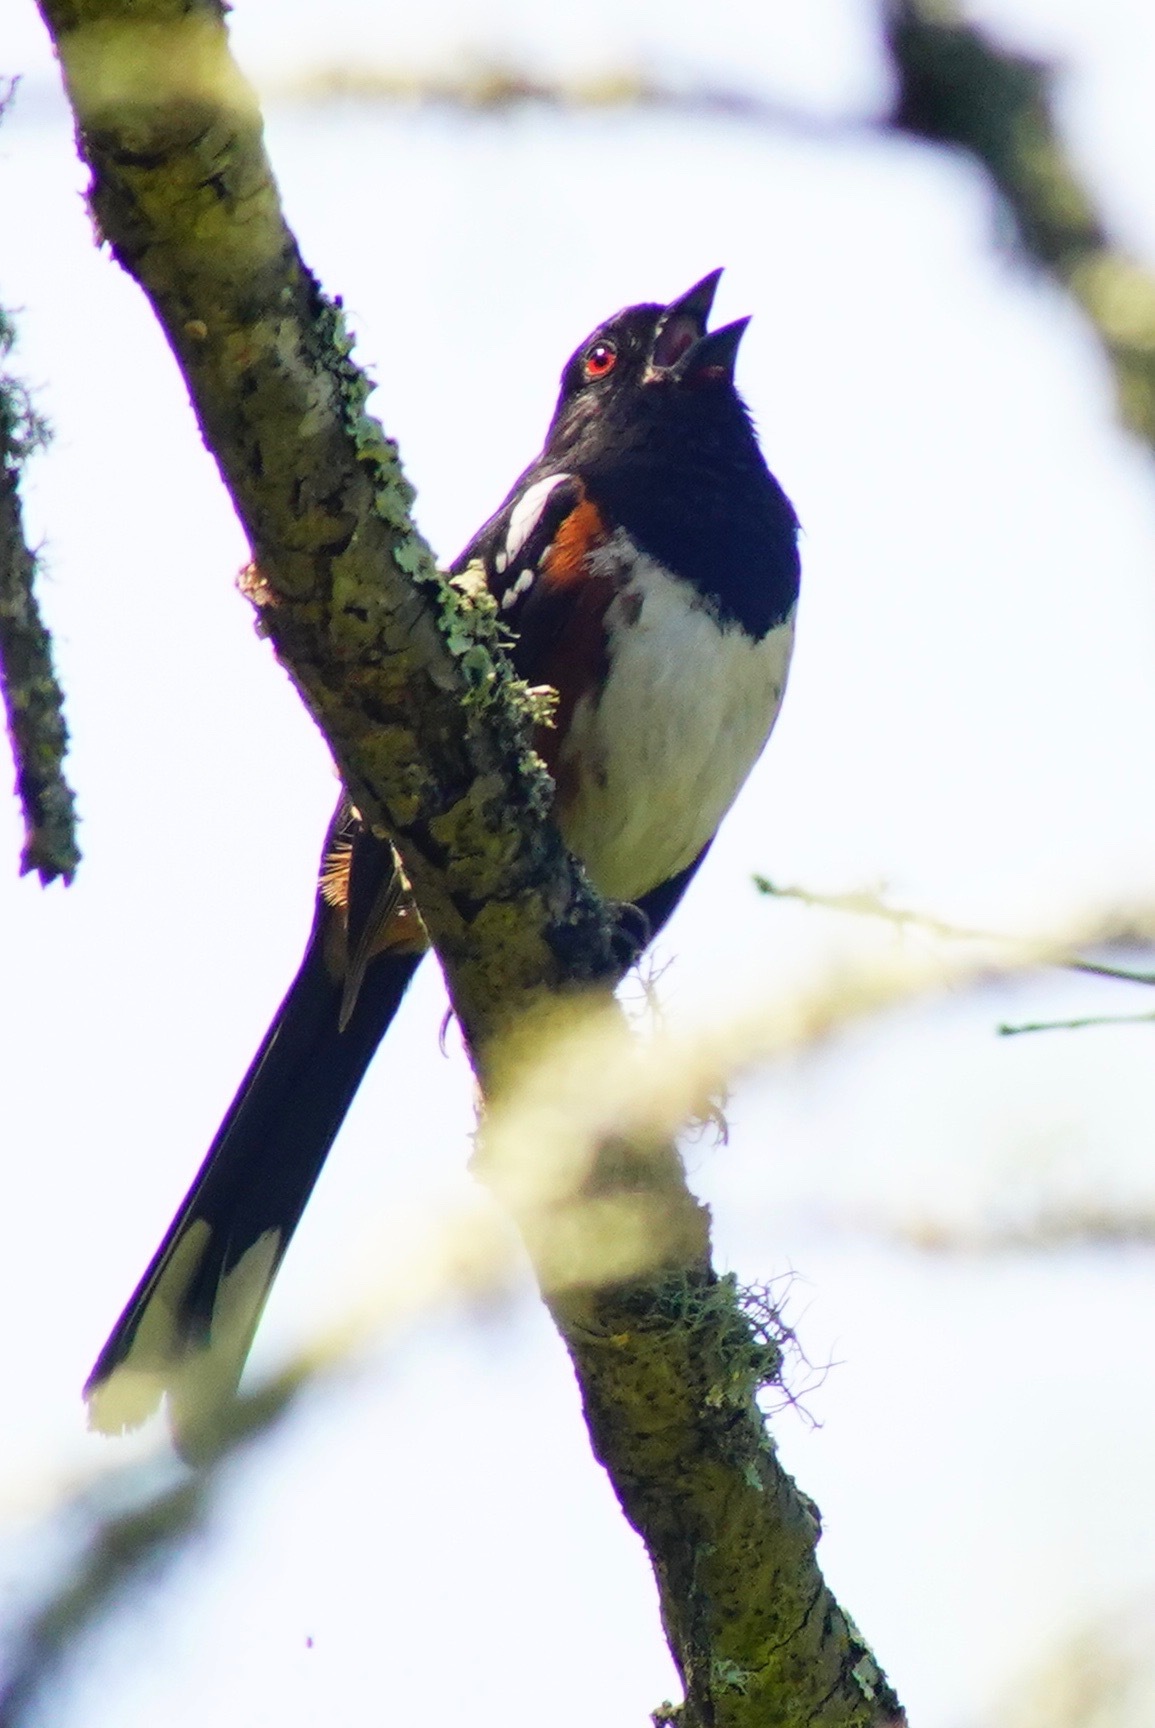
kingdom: Animalia
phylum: Chordata
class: Aves
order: Passeriformes
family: Passerellidae
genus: Pipilo
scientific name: Pipilo maculatus
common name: Spotted towhee
